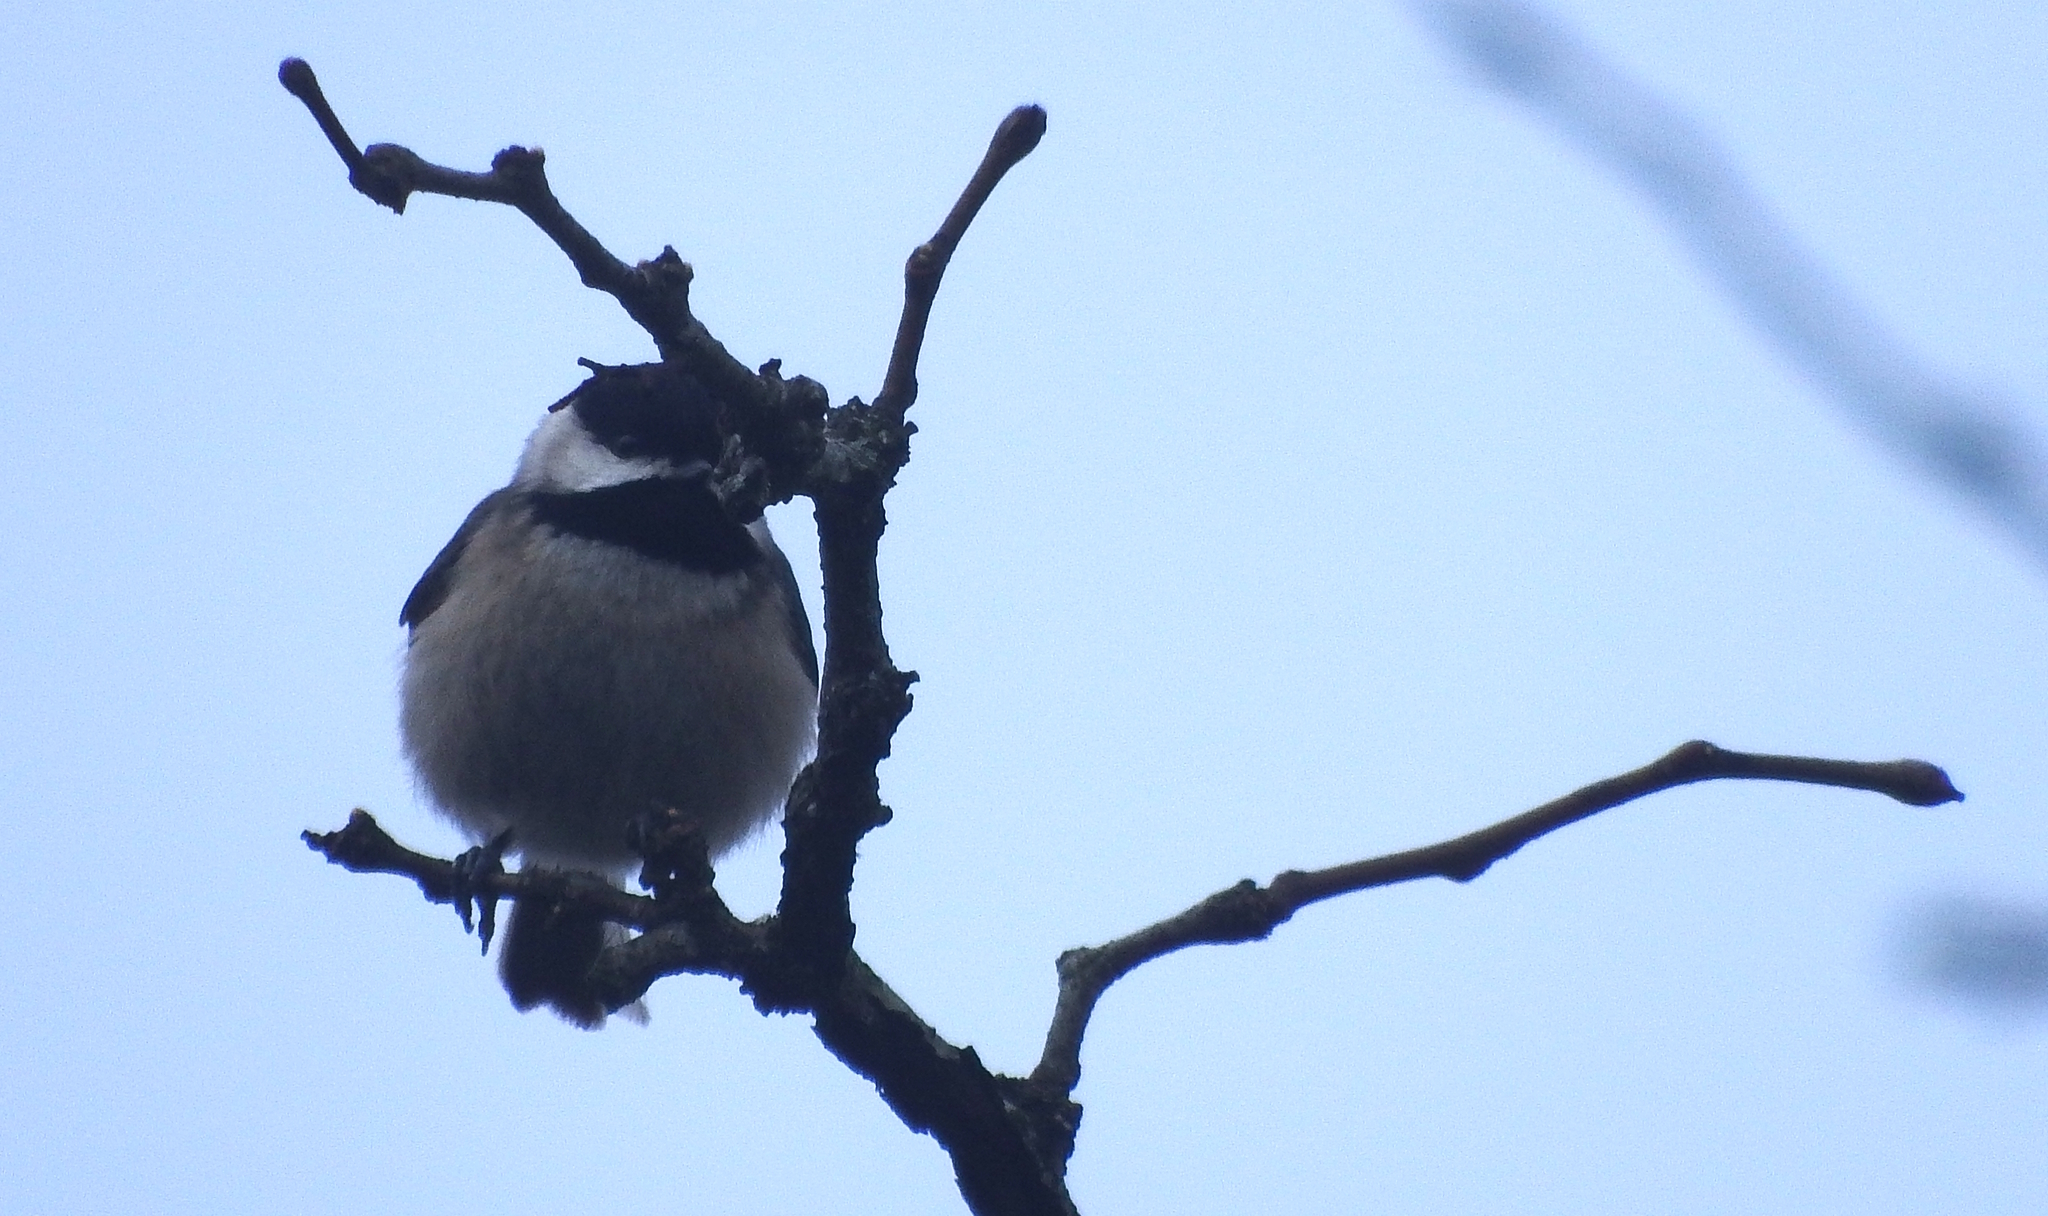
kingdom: Animalia
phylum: Chordata
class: Aves
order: Passeriformes
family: Paridae
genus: Poecile
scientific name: Poecile carolinensis
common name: Carolina chickadee
